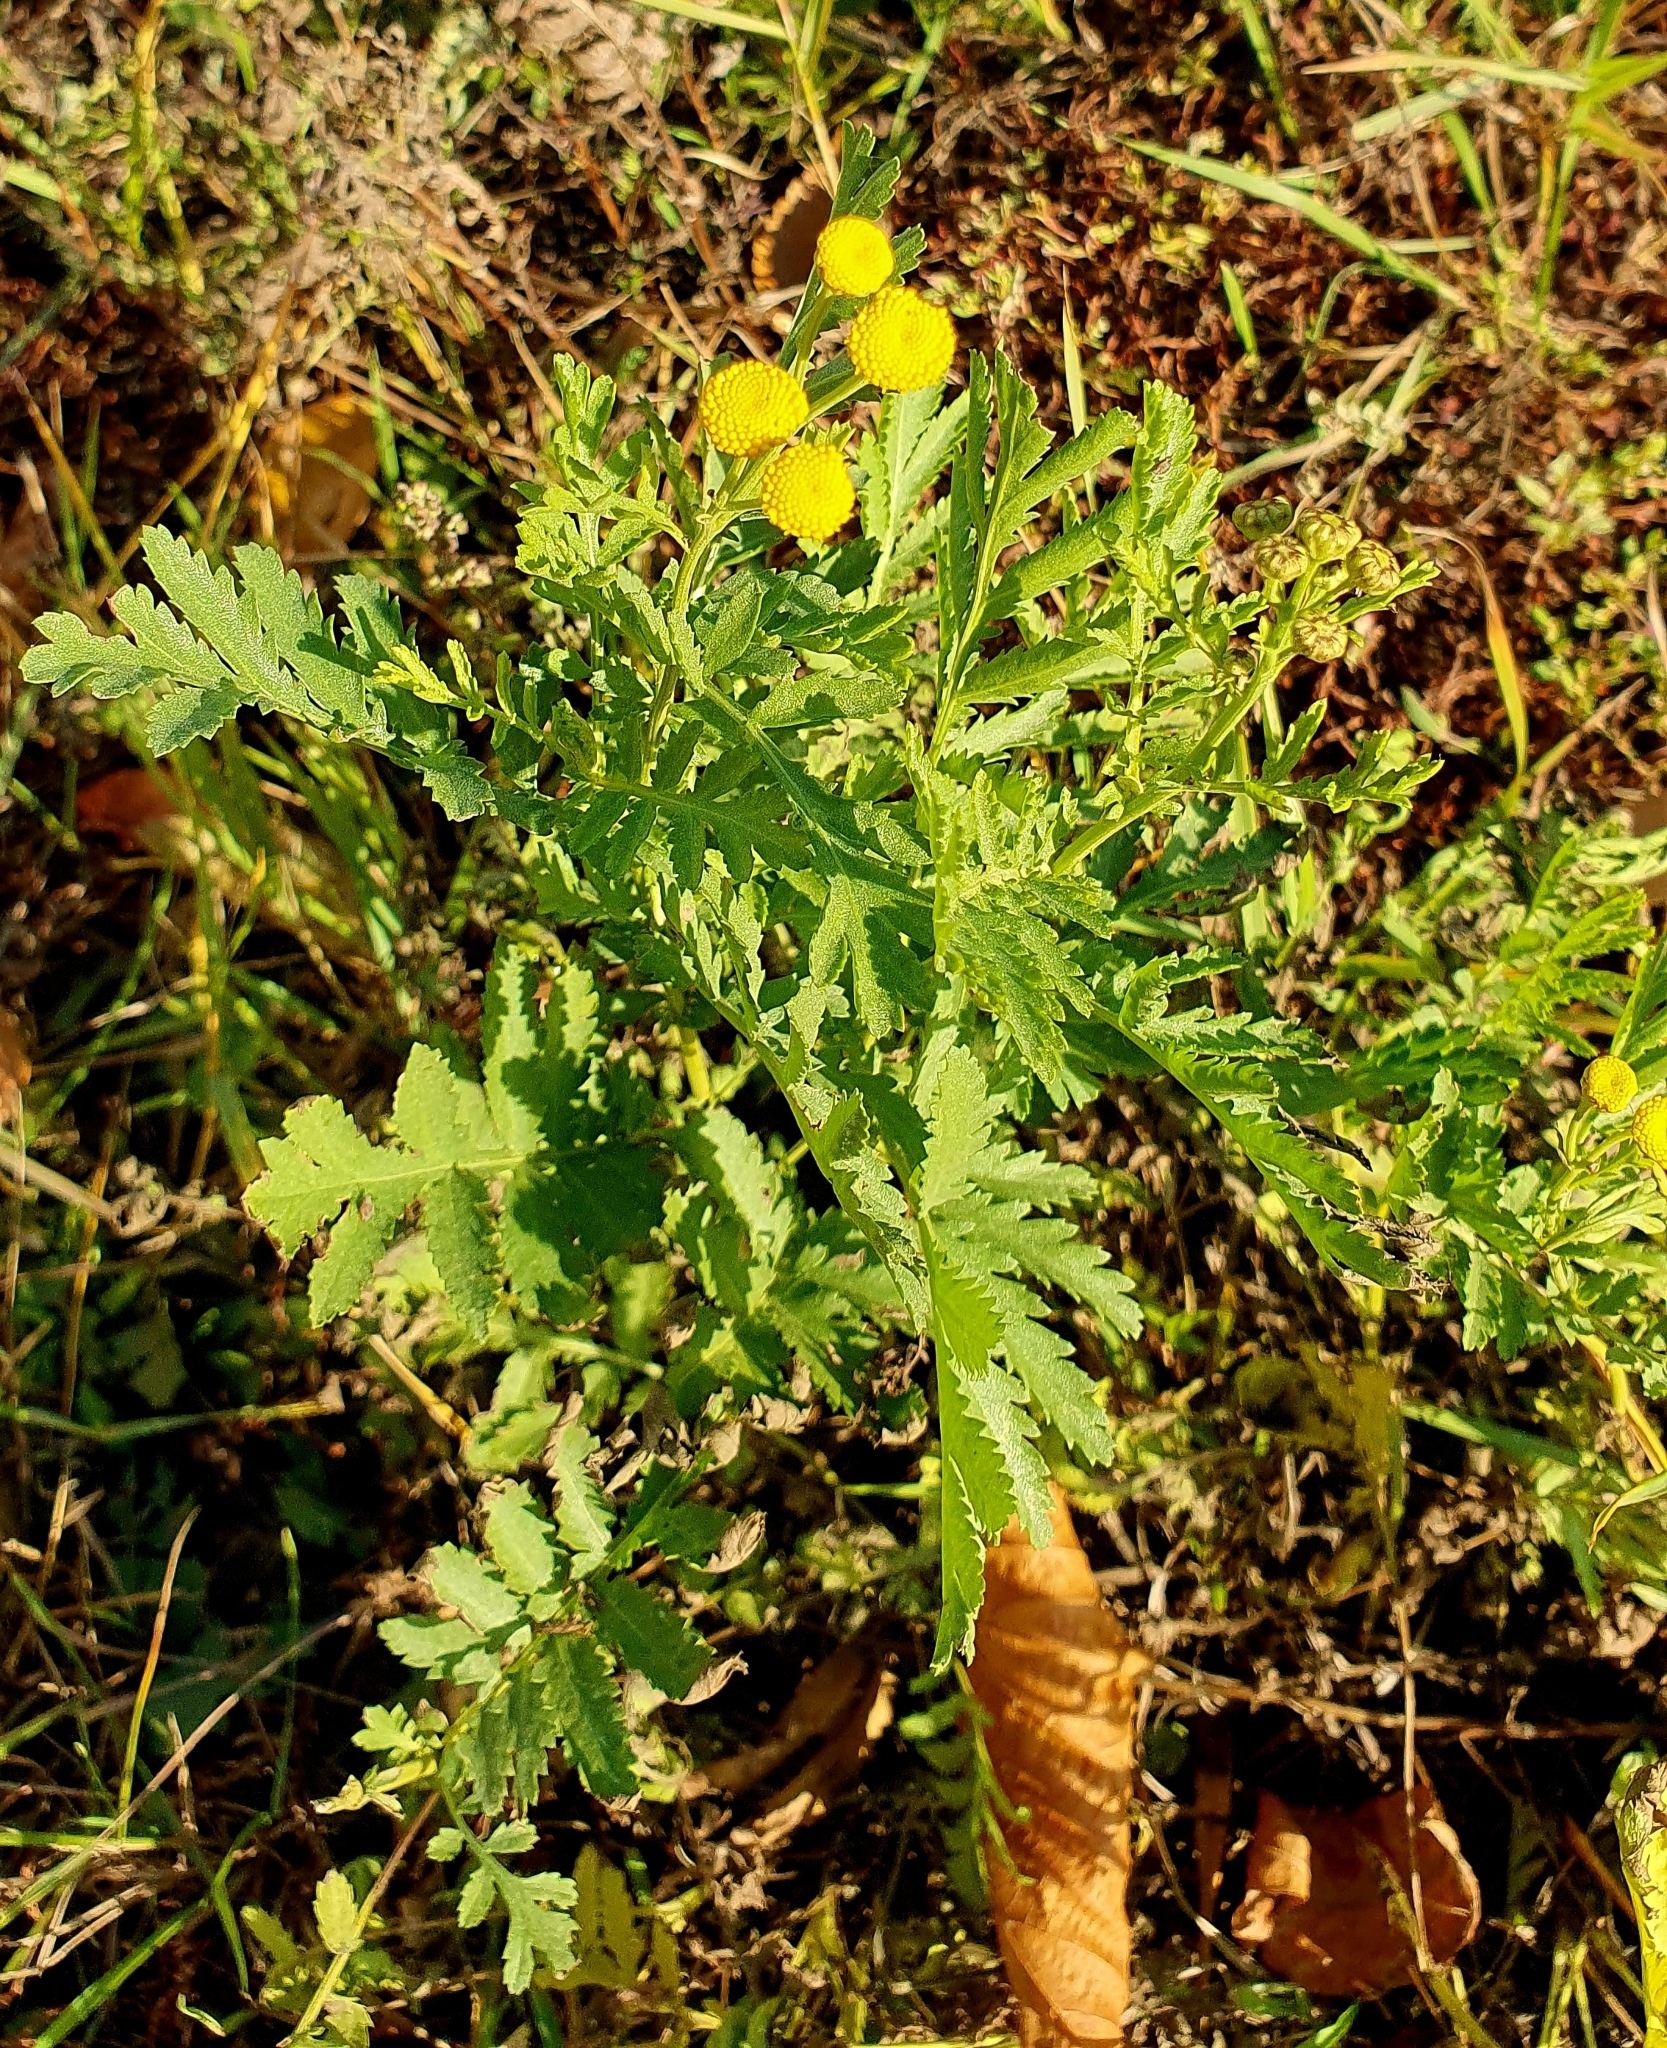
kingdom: Plantae
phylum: Tracheophyta
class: Magnoliopsida
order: Asterales
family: Asteraceae
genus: Tanacetum
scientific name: Tanacetum vulgare
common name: Common tansy
